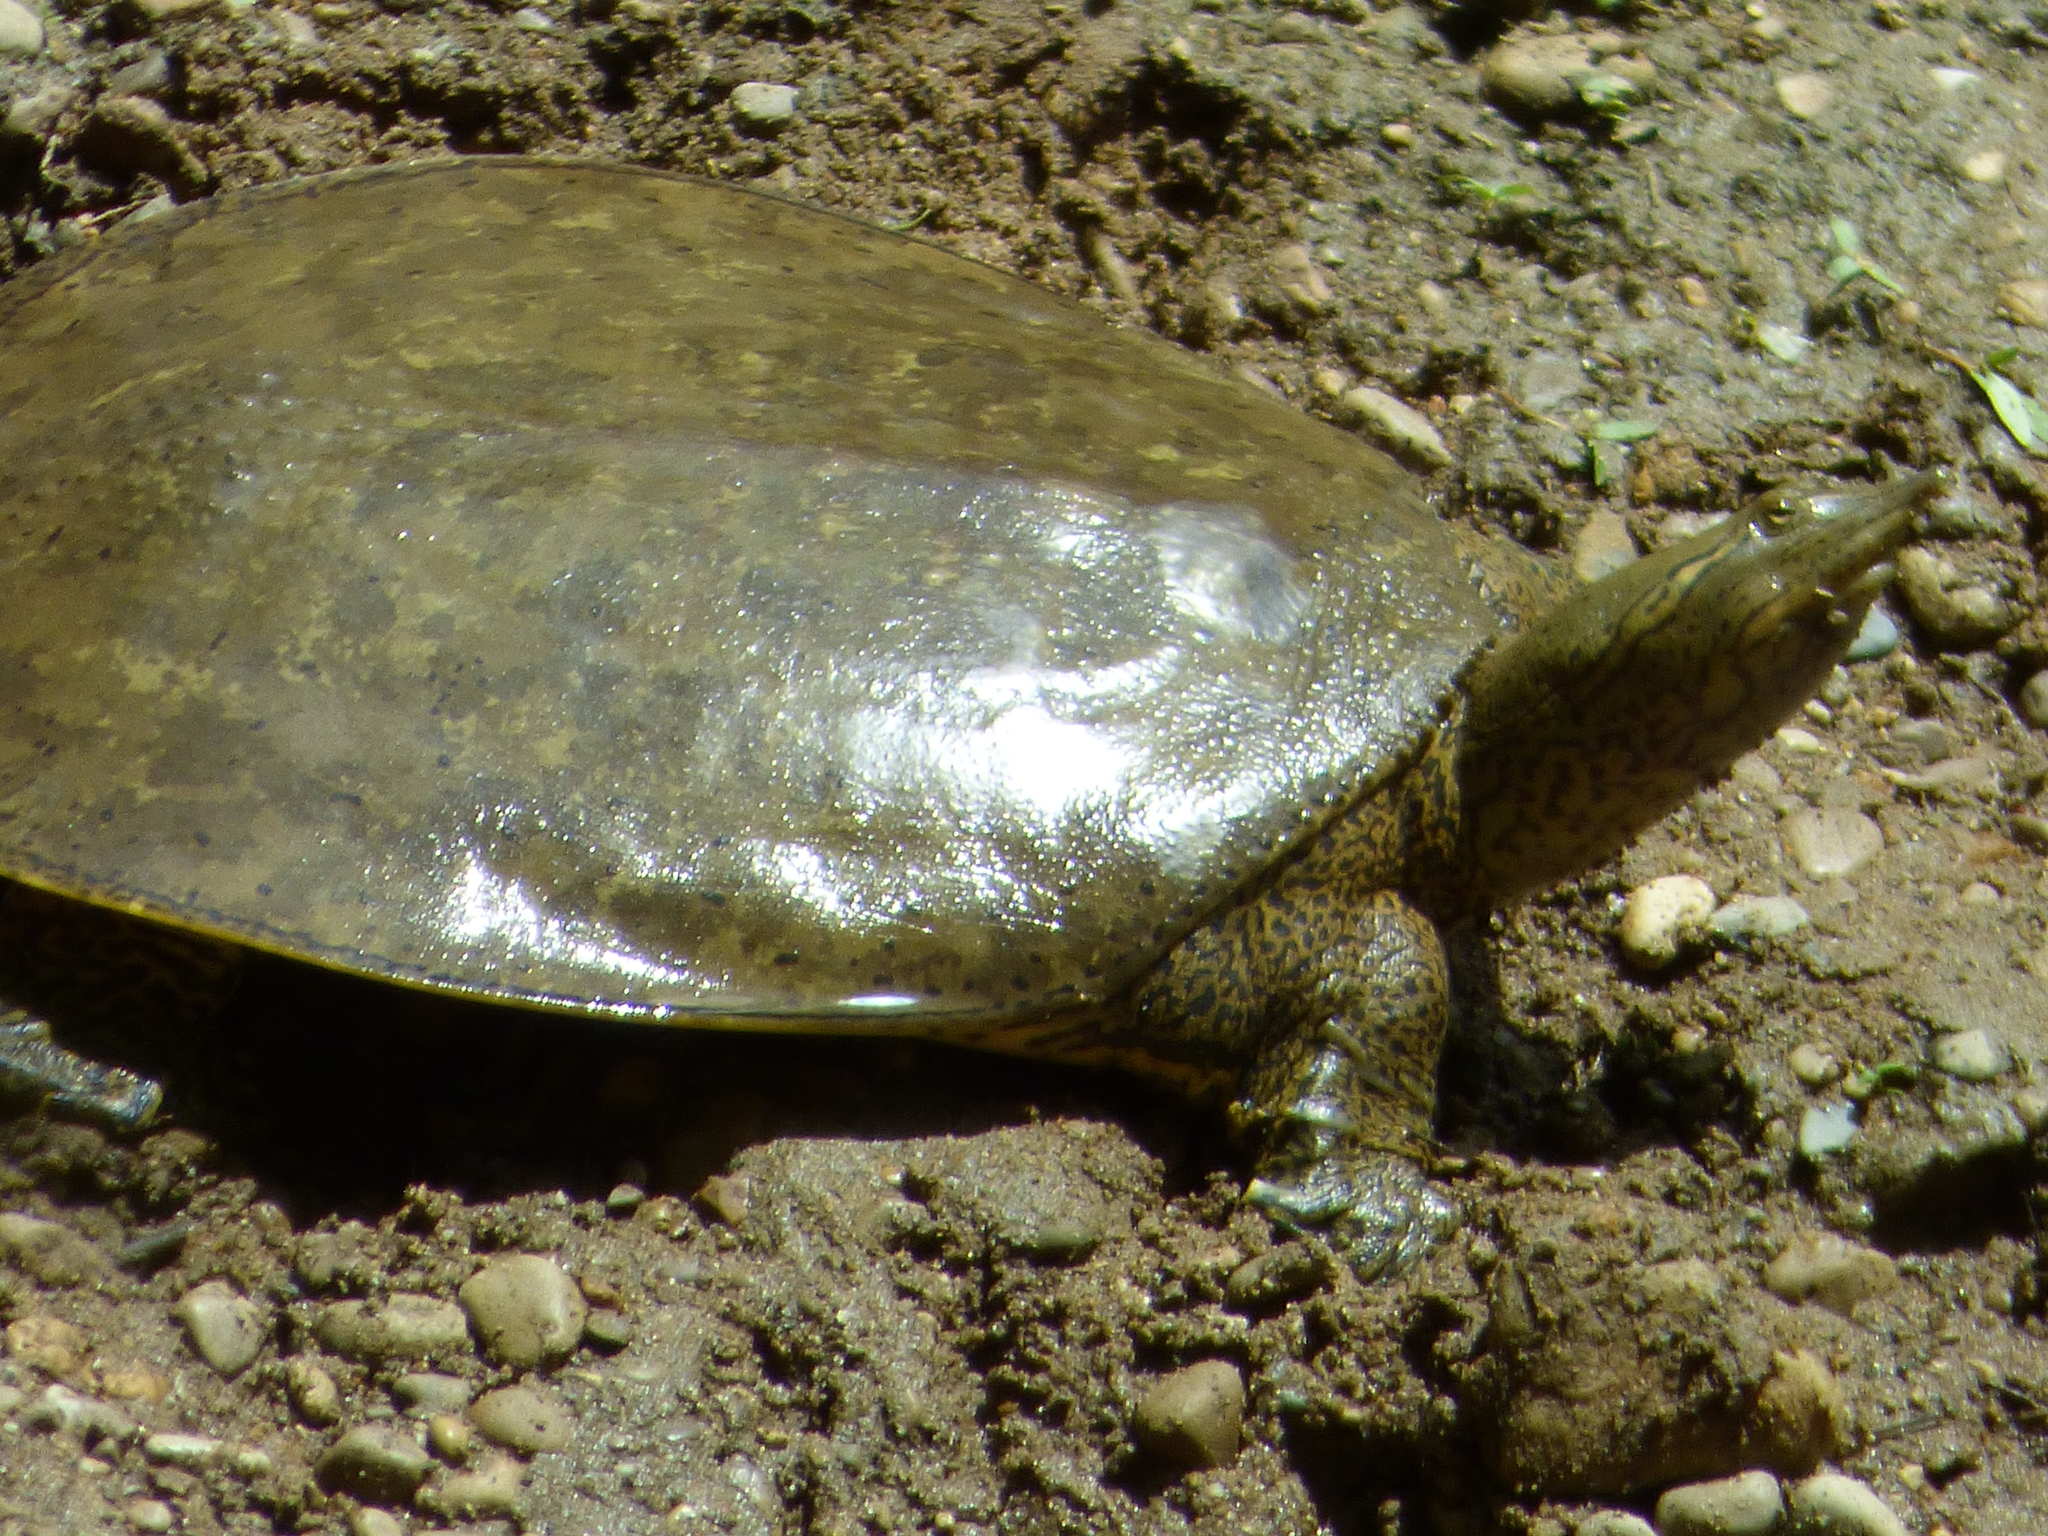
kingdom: Animalia
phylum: Chordata
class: Testudines
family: Trionychidae
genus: Apalone
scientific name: Apalone spinifera
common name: Spiny softshell turtle
